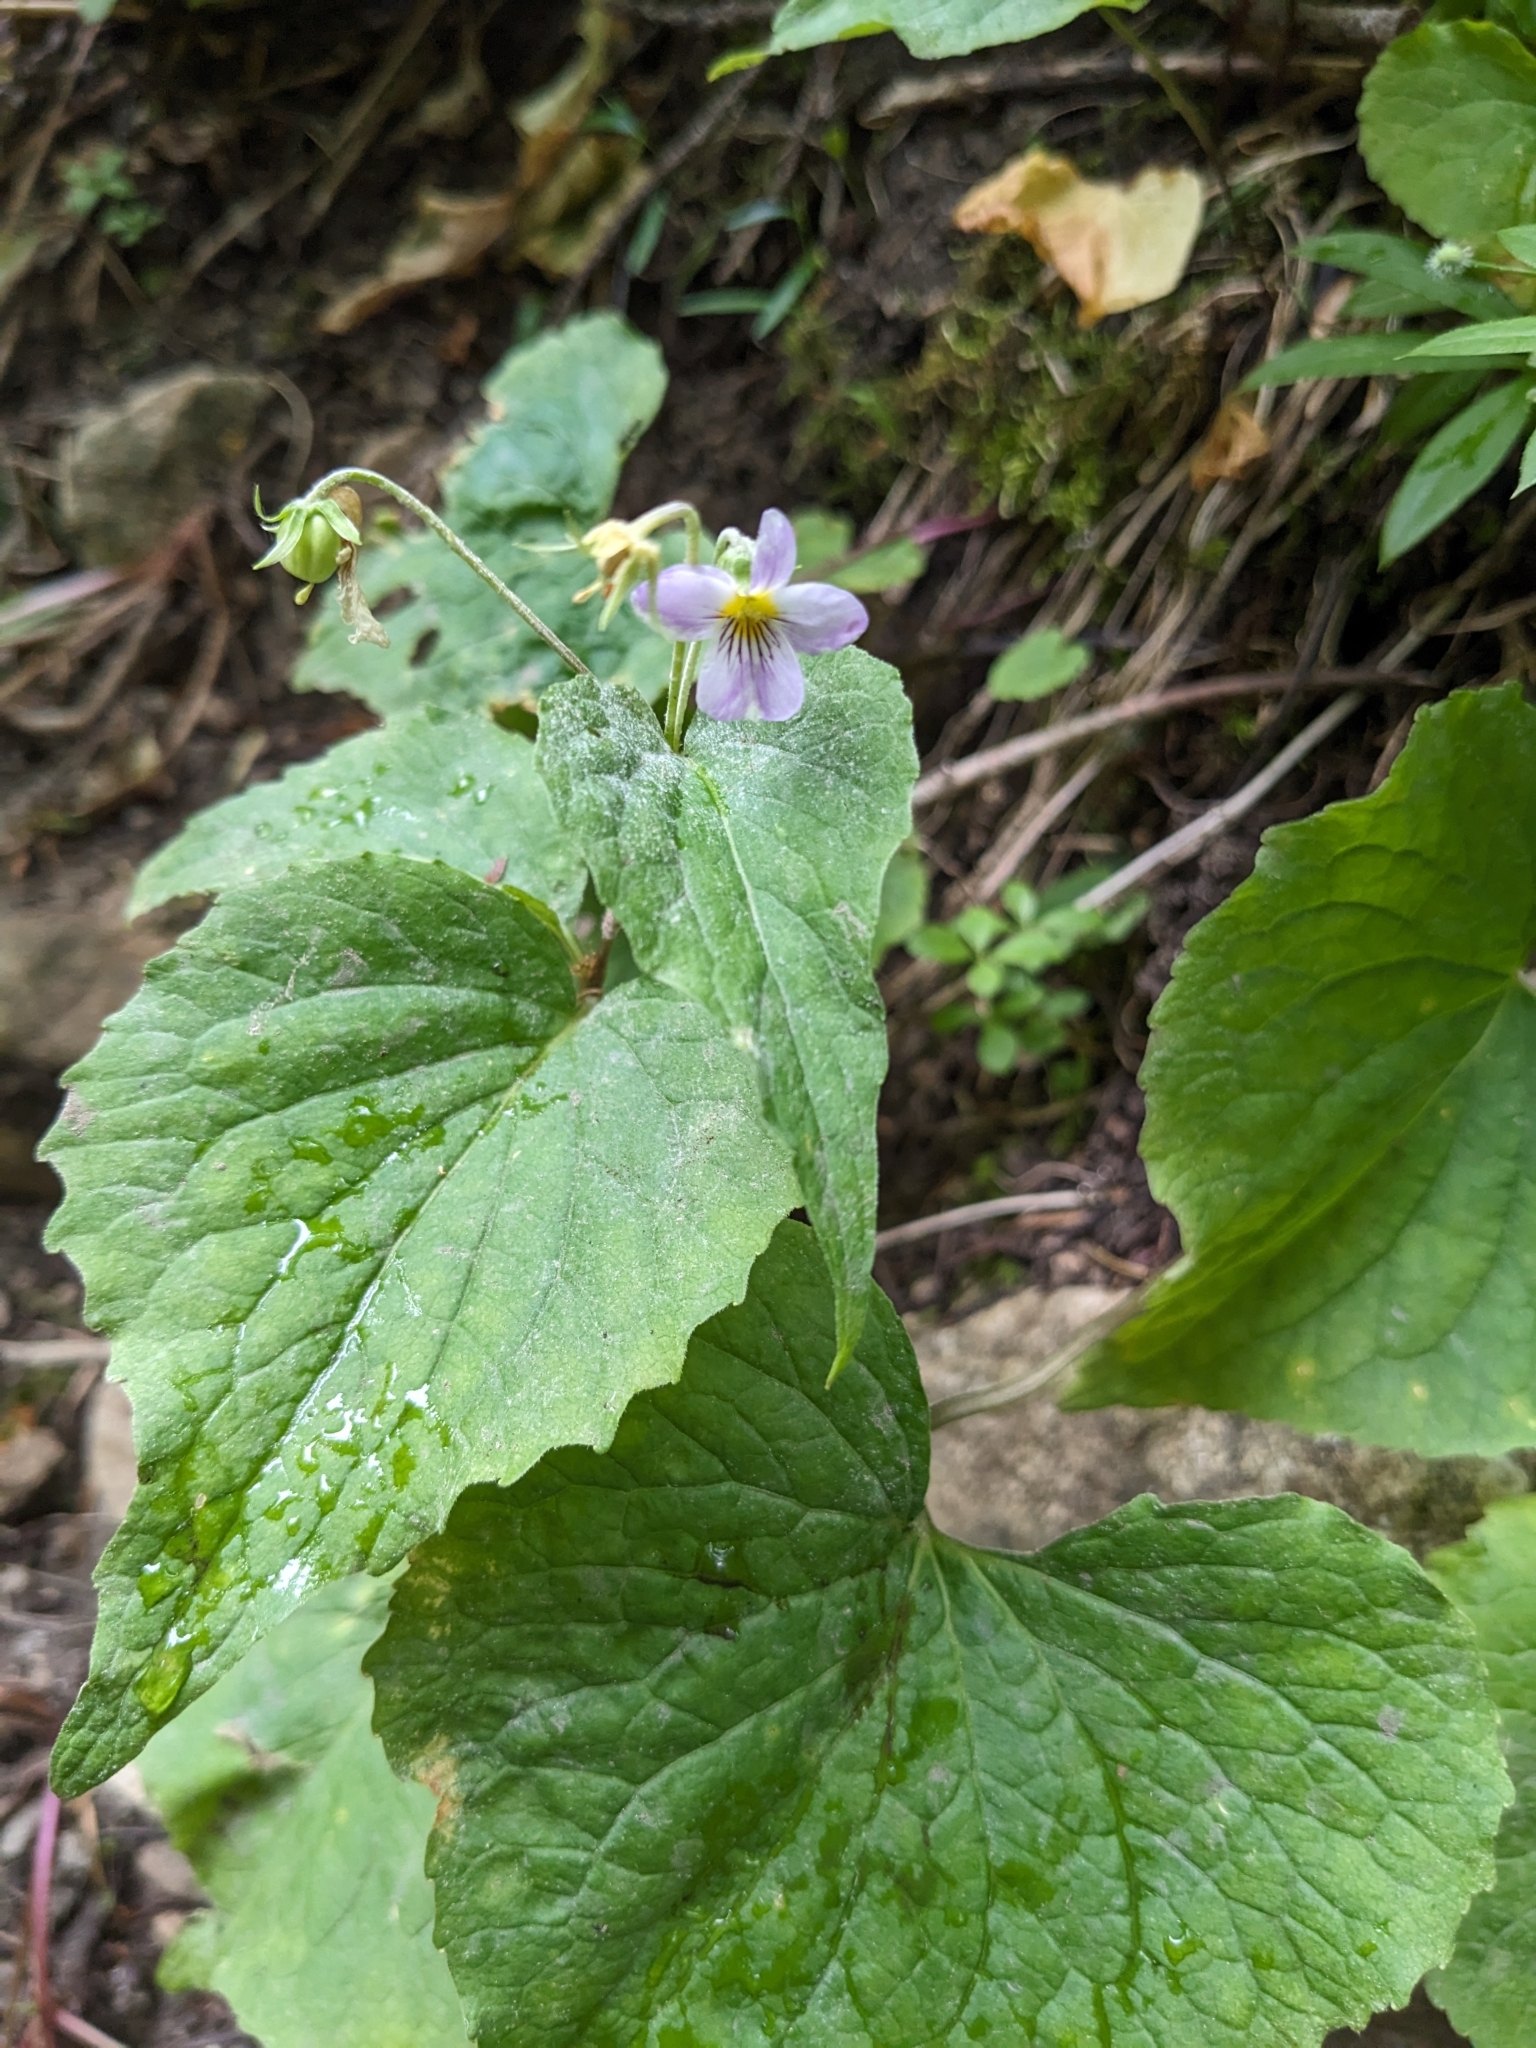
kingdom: Plantae
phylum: Tracheophyta
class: Magnoliopsida
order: Malpighiales
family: Violaceae
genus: Viola
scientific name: Viola canadensis
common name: Canada violet
